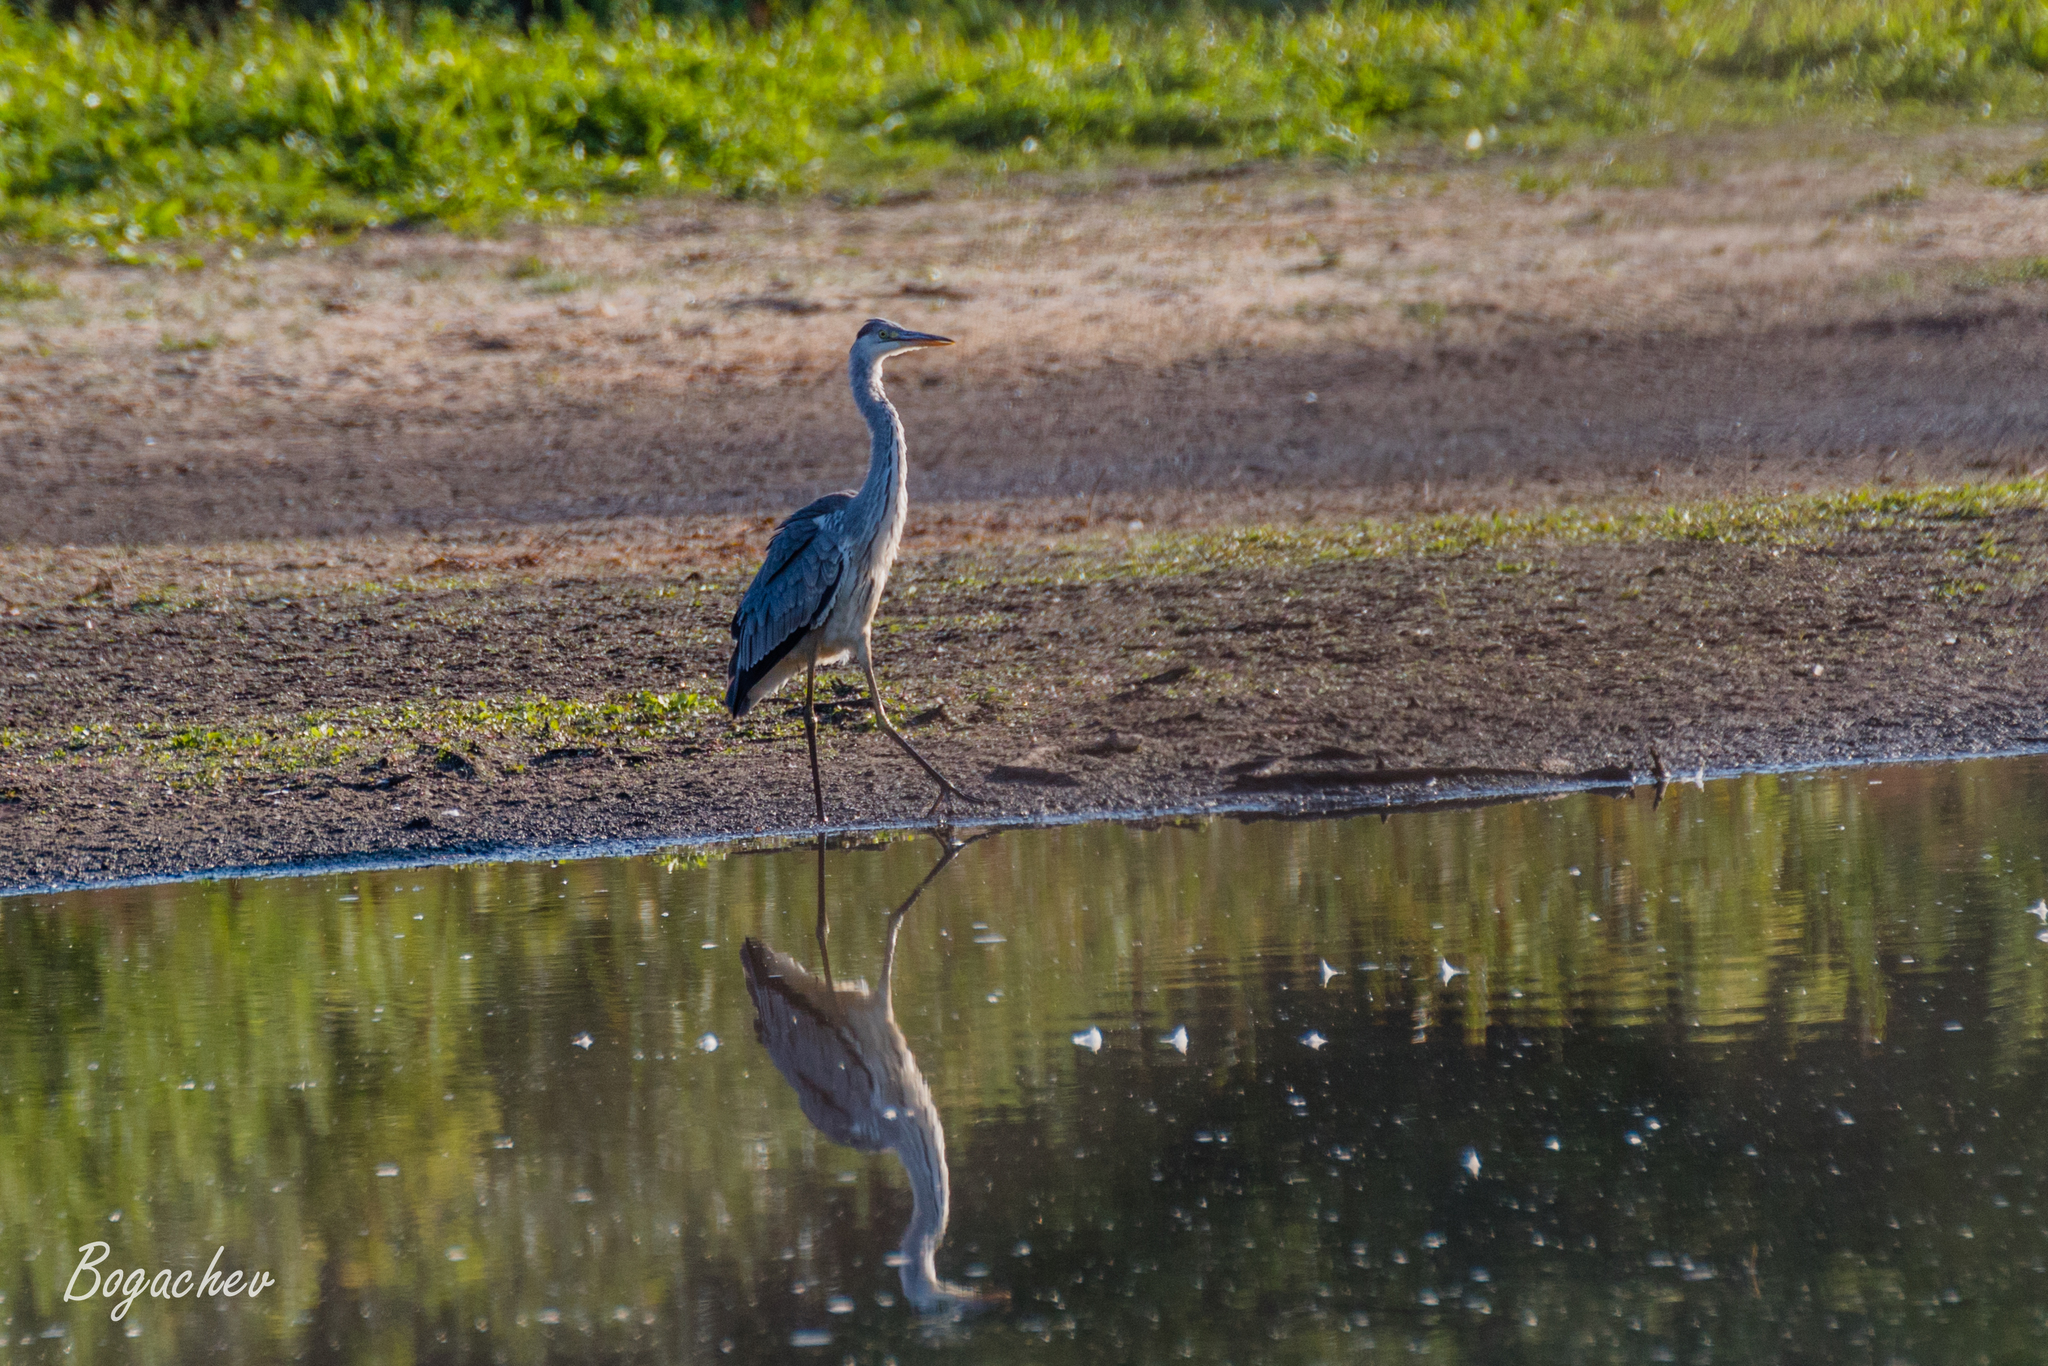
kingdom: Animalia
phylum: Chordata
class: Aves
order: Pelecaniformes
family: Ardeidae
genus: Ardea
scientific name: Ardea cinerea
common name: Grey heron
